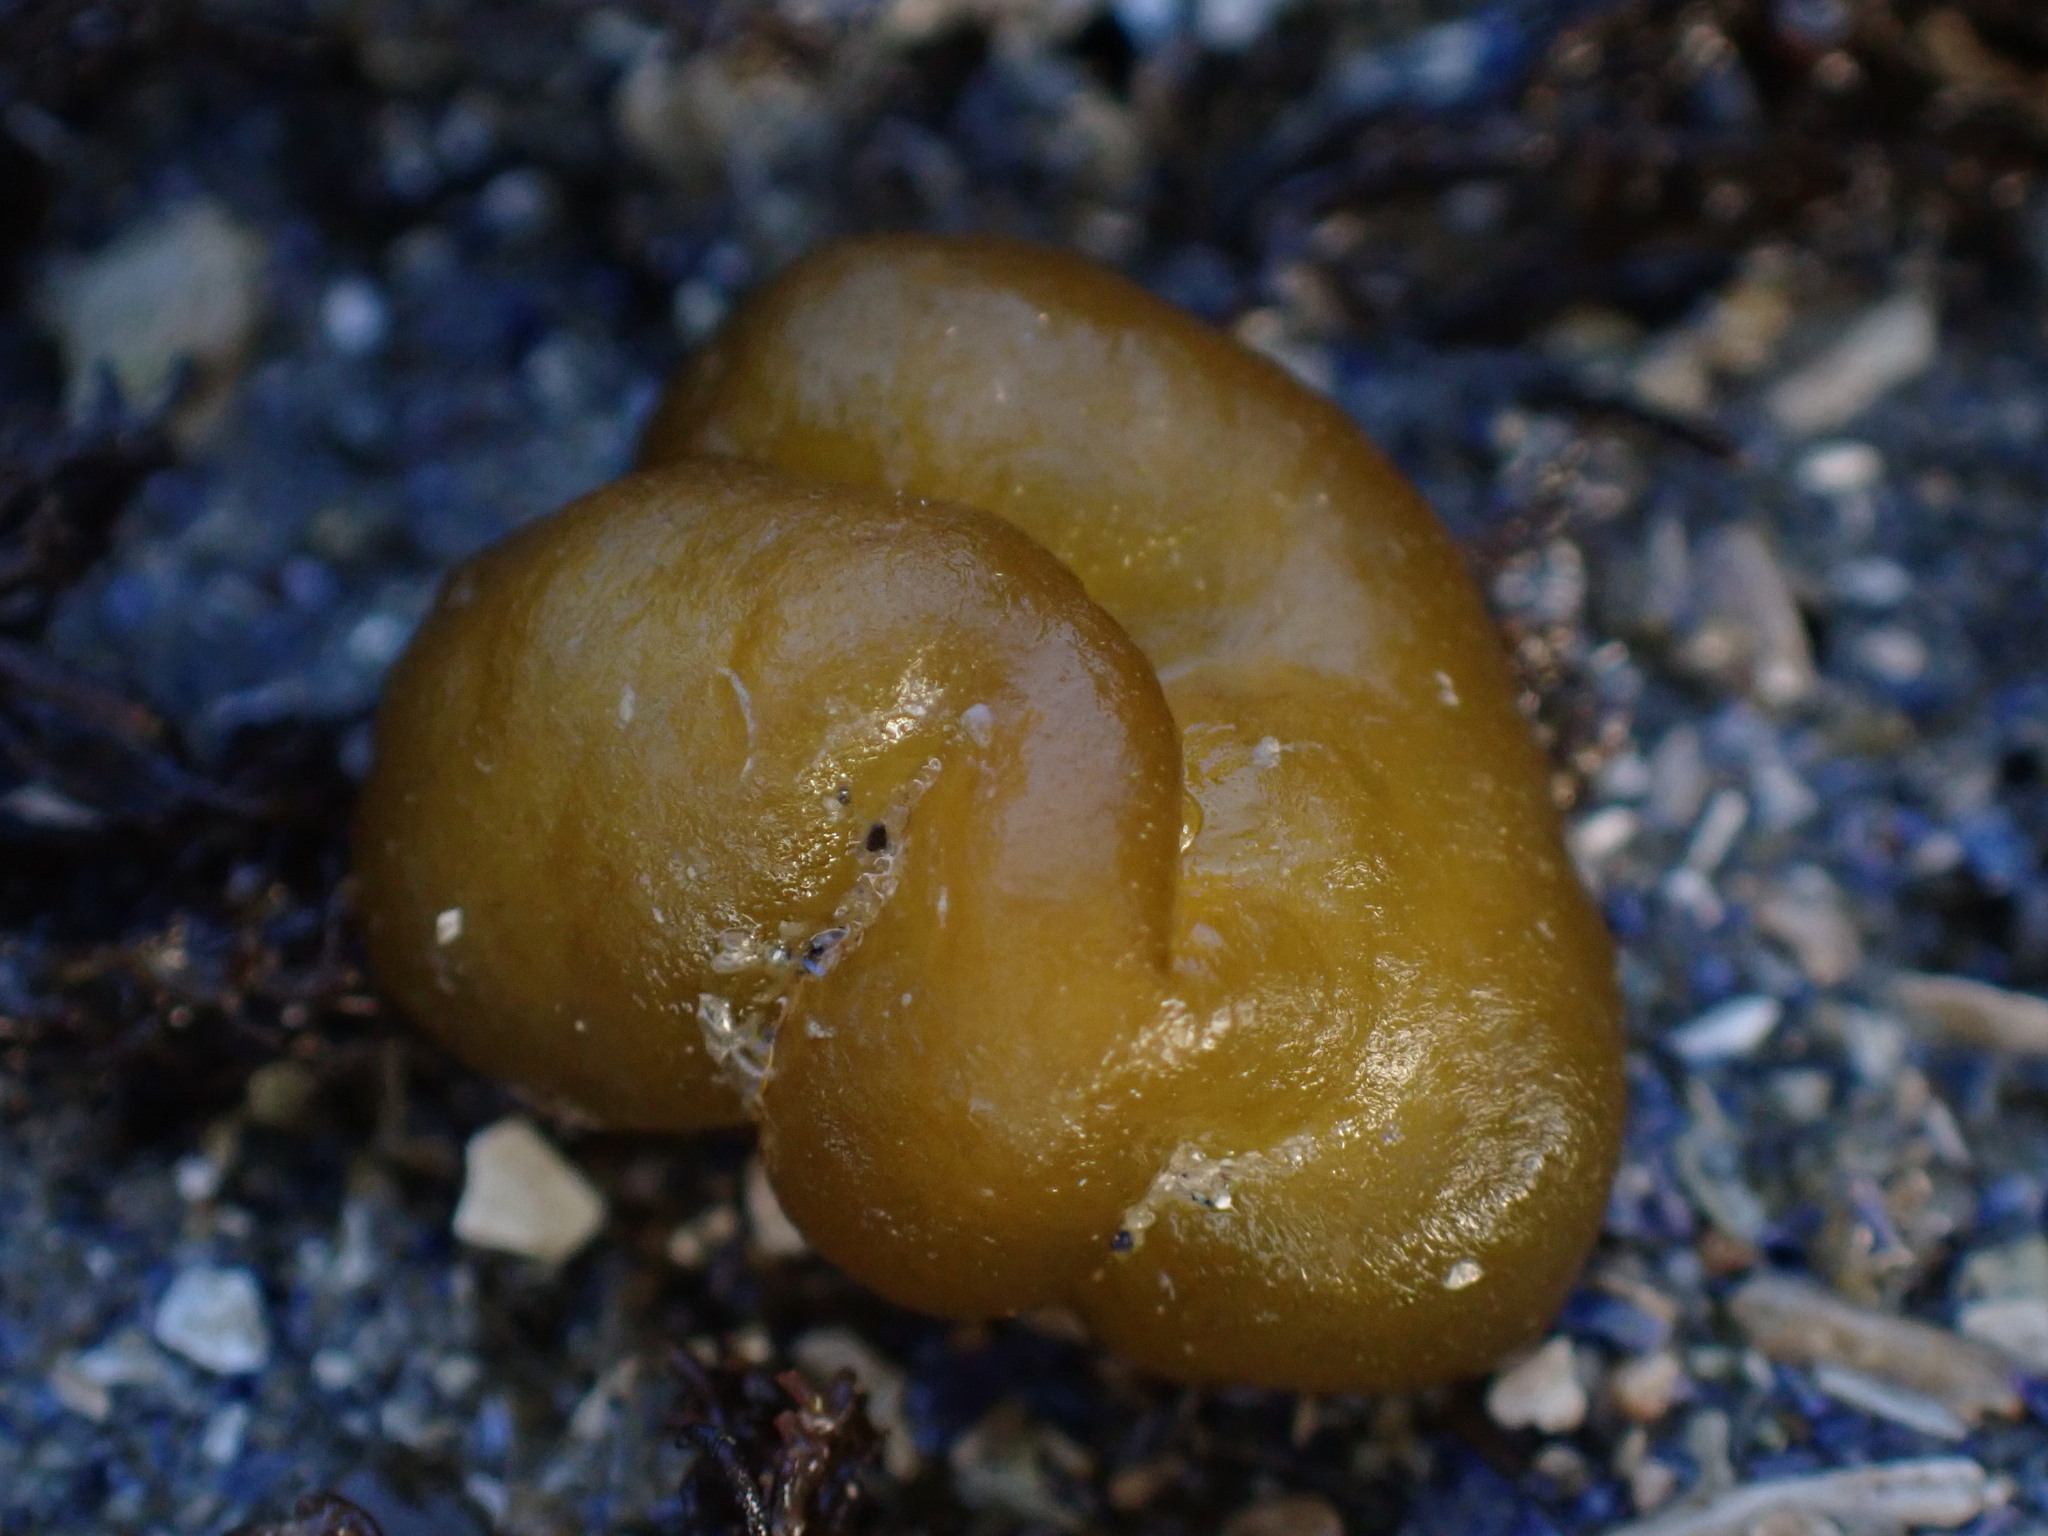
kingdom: Chromista
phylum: Ochrophyta
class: Phaeophyceae
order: Ectocarpales
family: Chordariaceae
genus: Leathesia
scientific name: Leathesia marina
